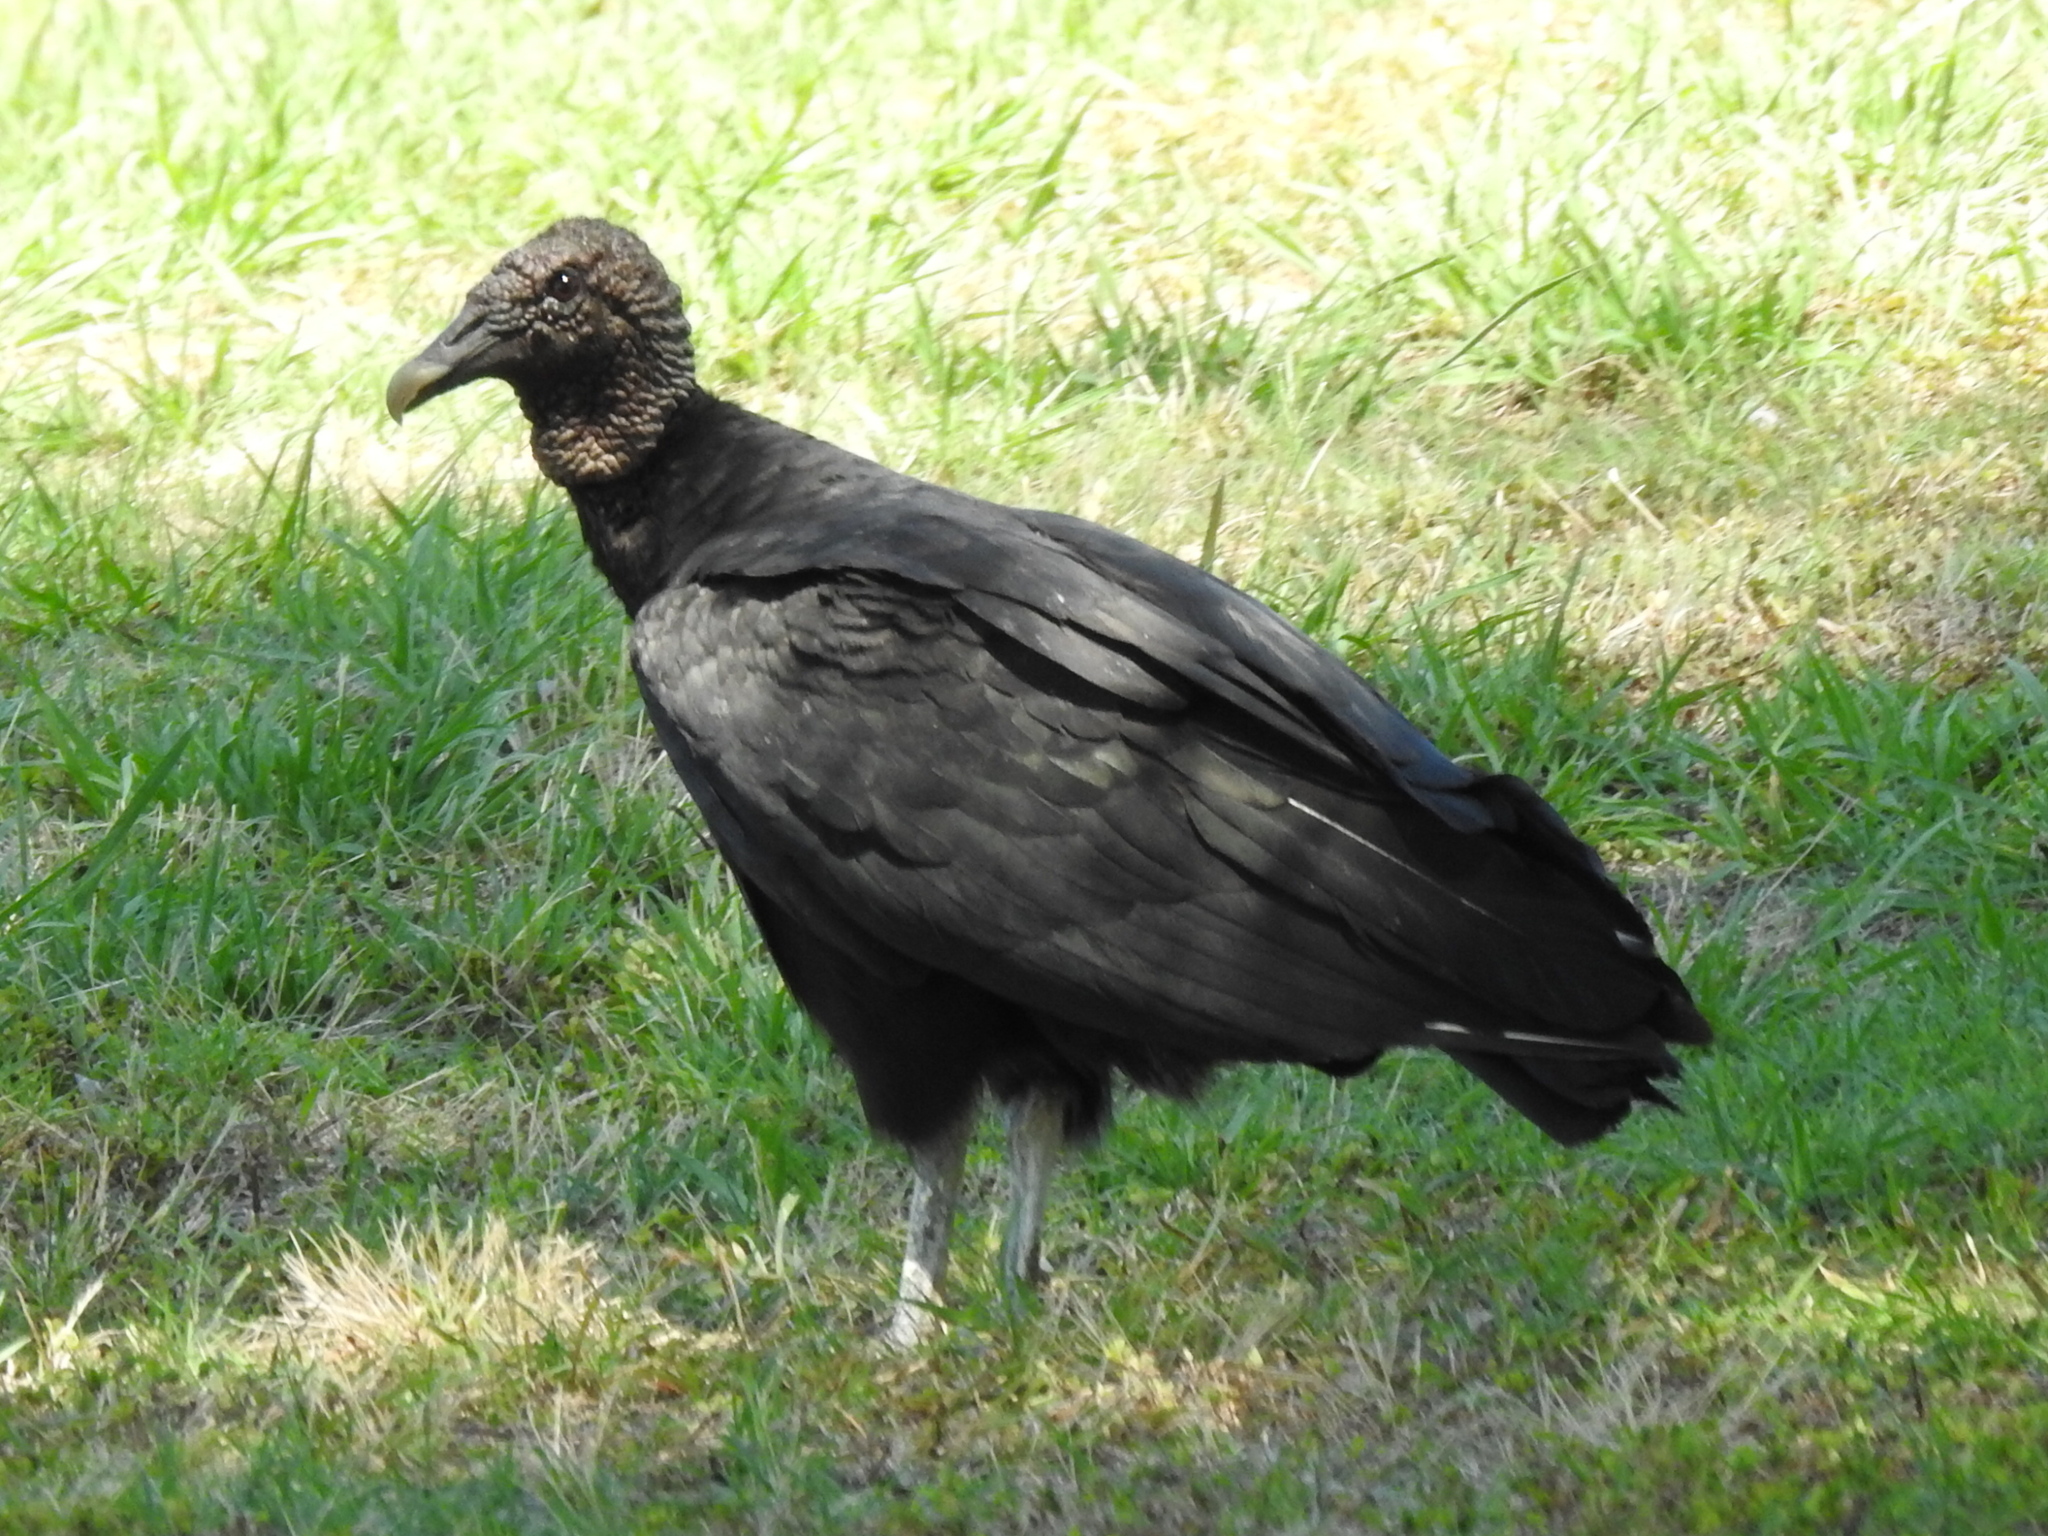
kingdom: Animalia
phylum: Chordata
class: Aves
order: Accipitriformes
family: Cathartidae
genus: Coragyps
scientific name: Coragyps atratus
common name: Black vulture
